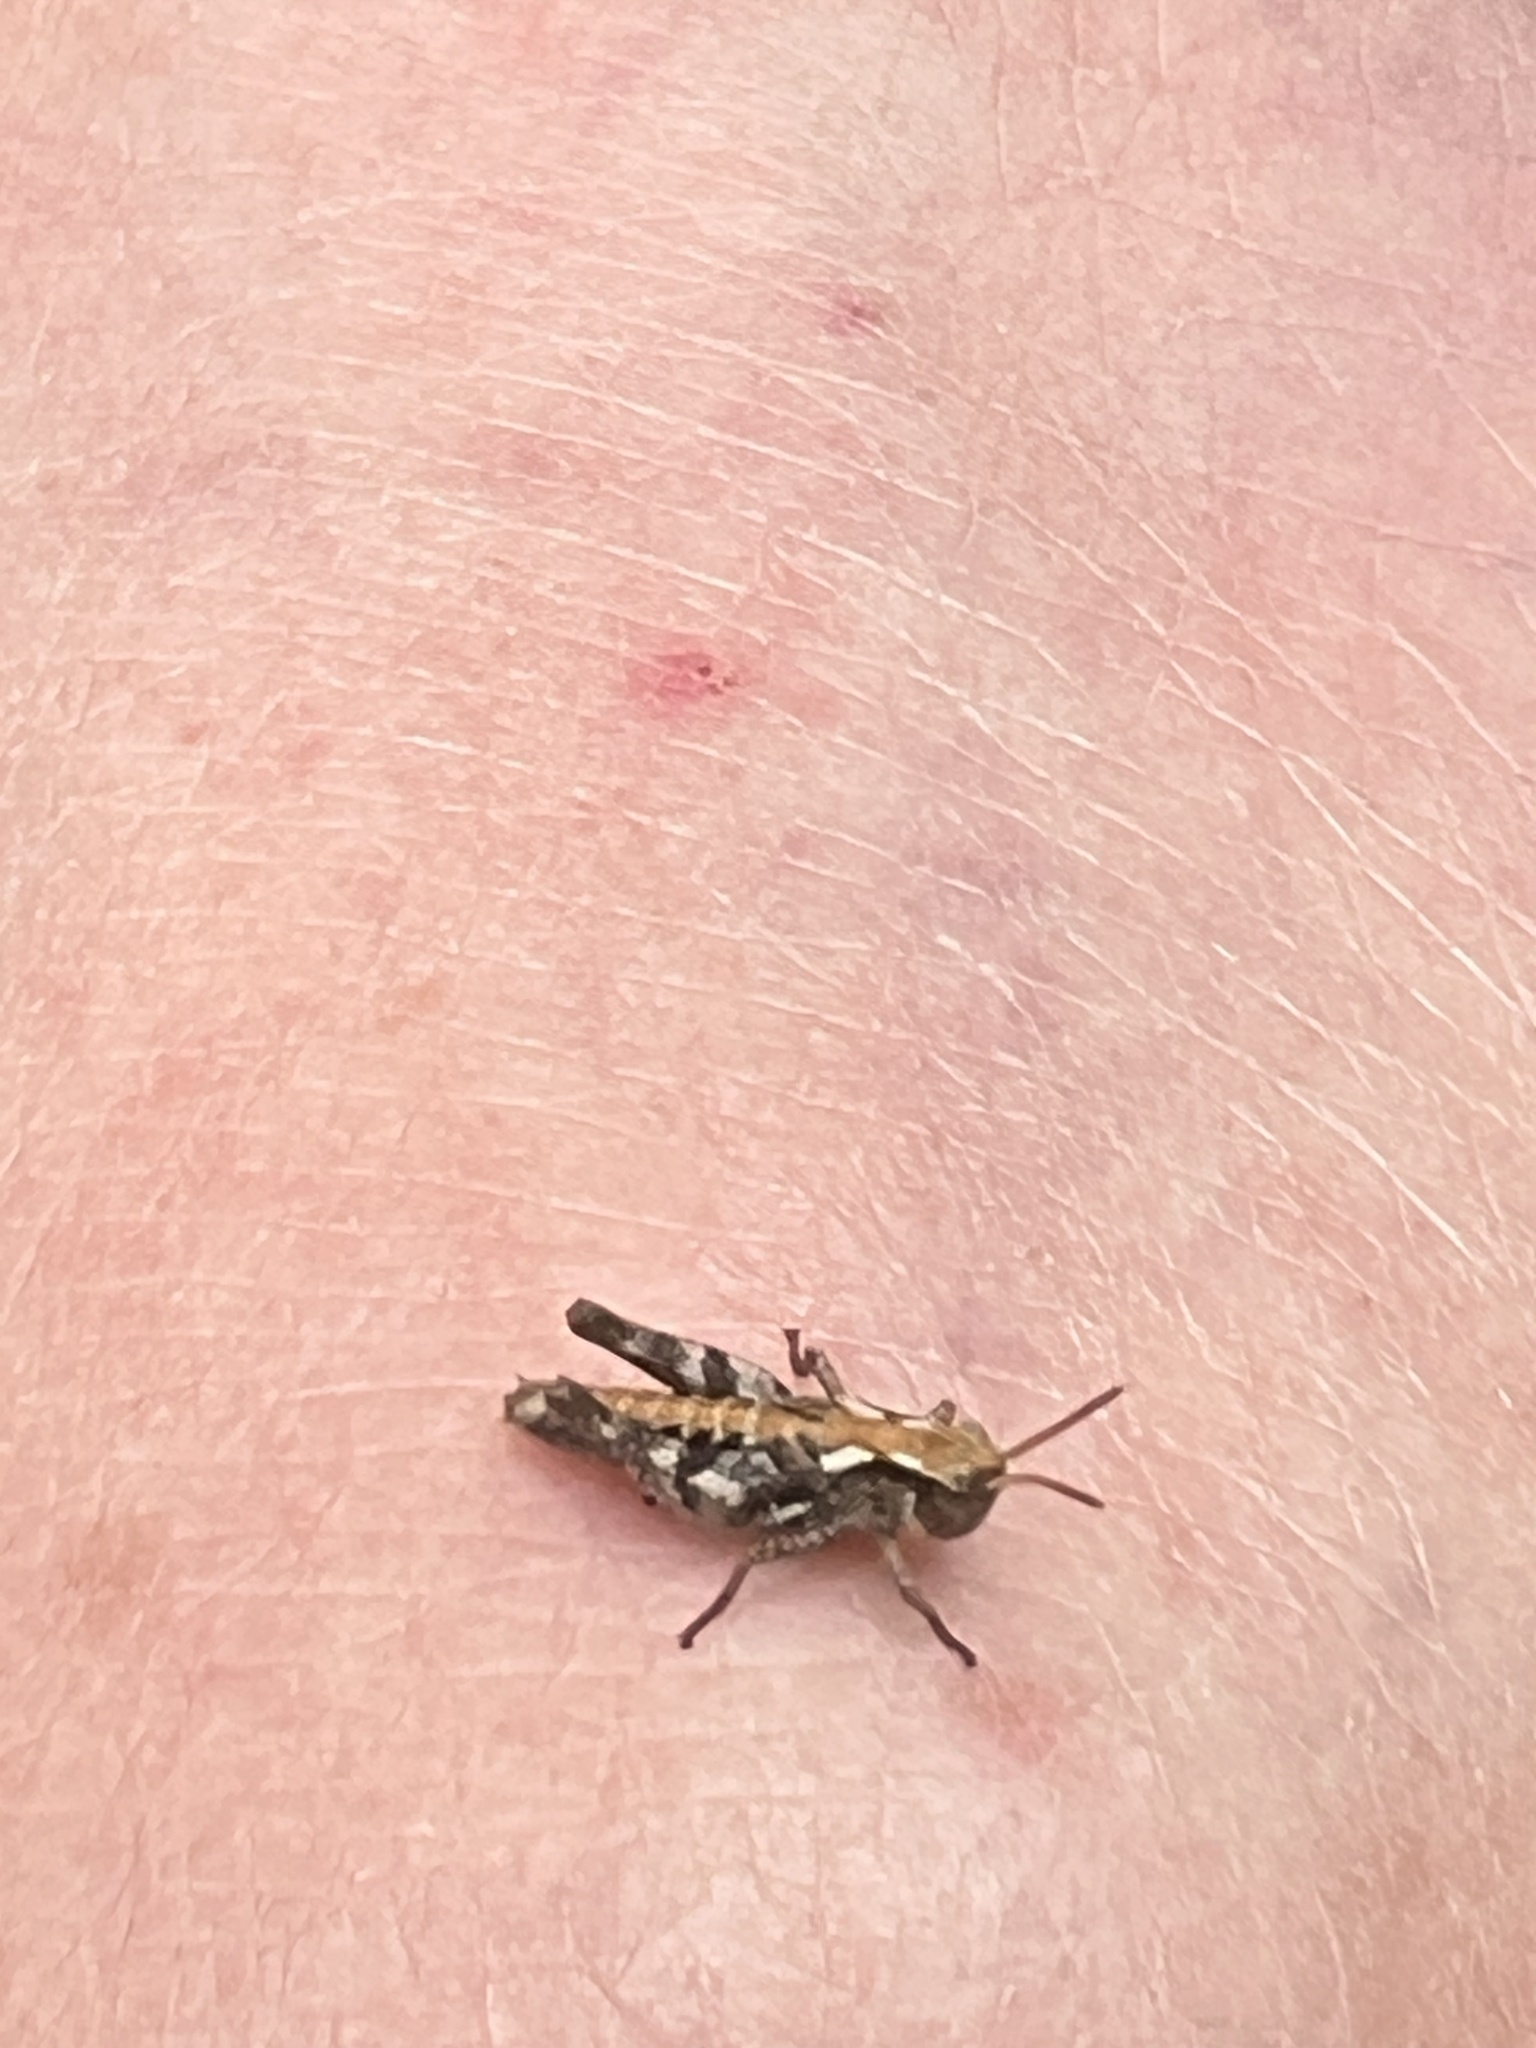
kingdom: Animalia
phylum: Arthropoda
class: Insecta
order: Orthoptera
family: Acrididae
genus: Phaulacridium
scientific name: Phaulacridium marginale
